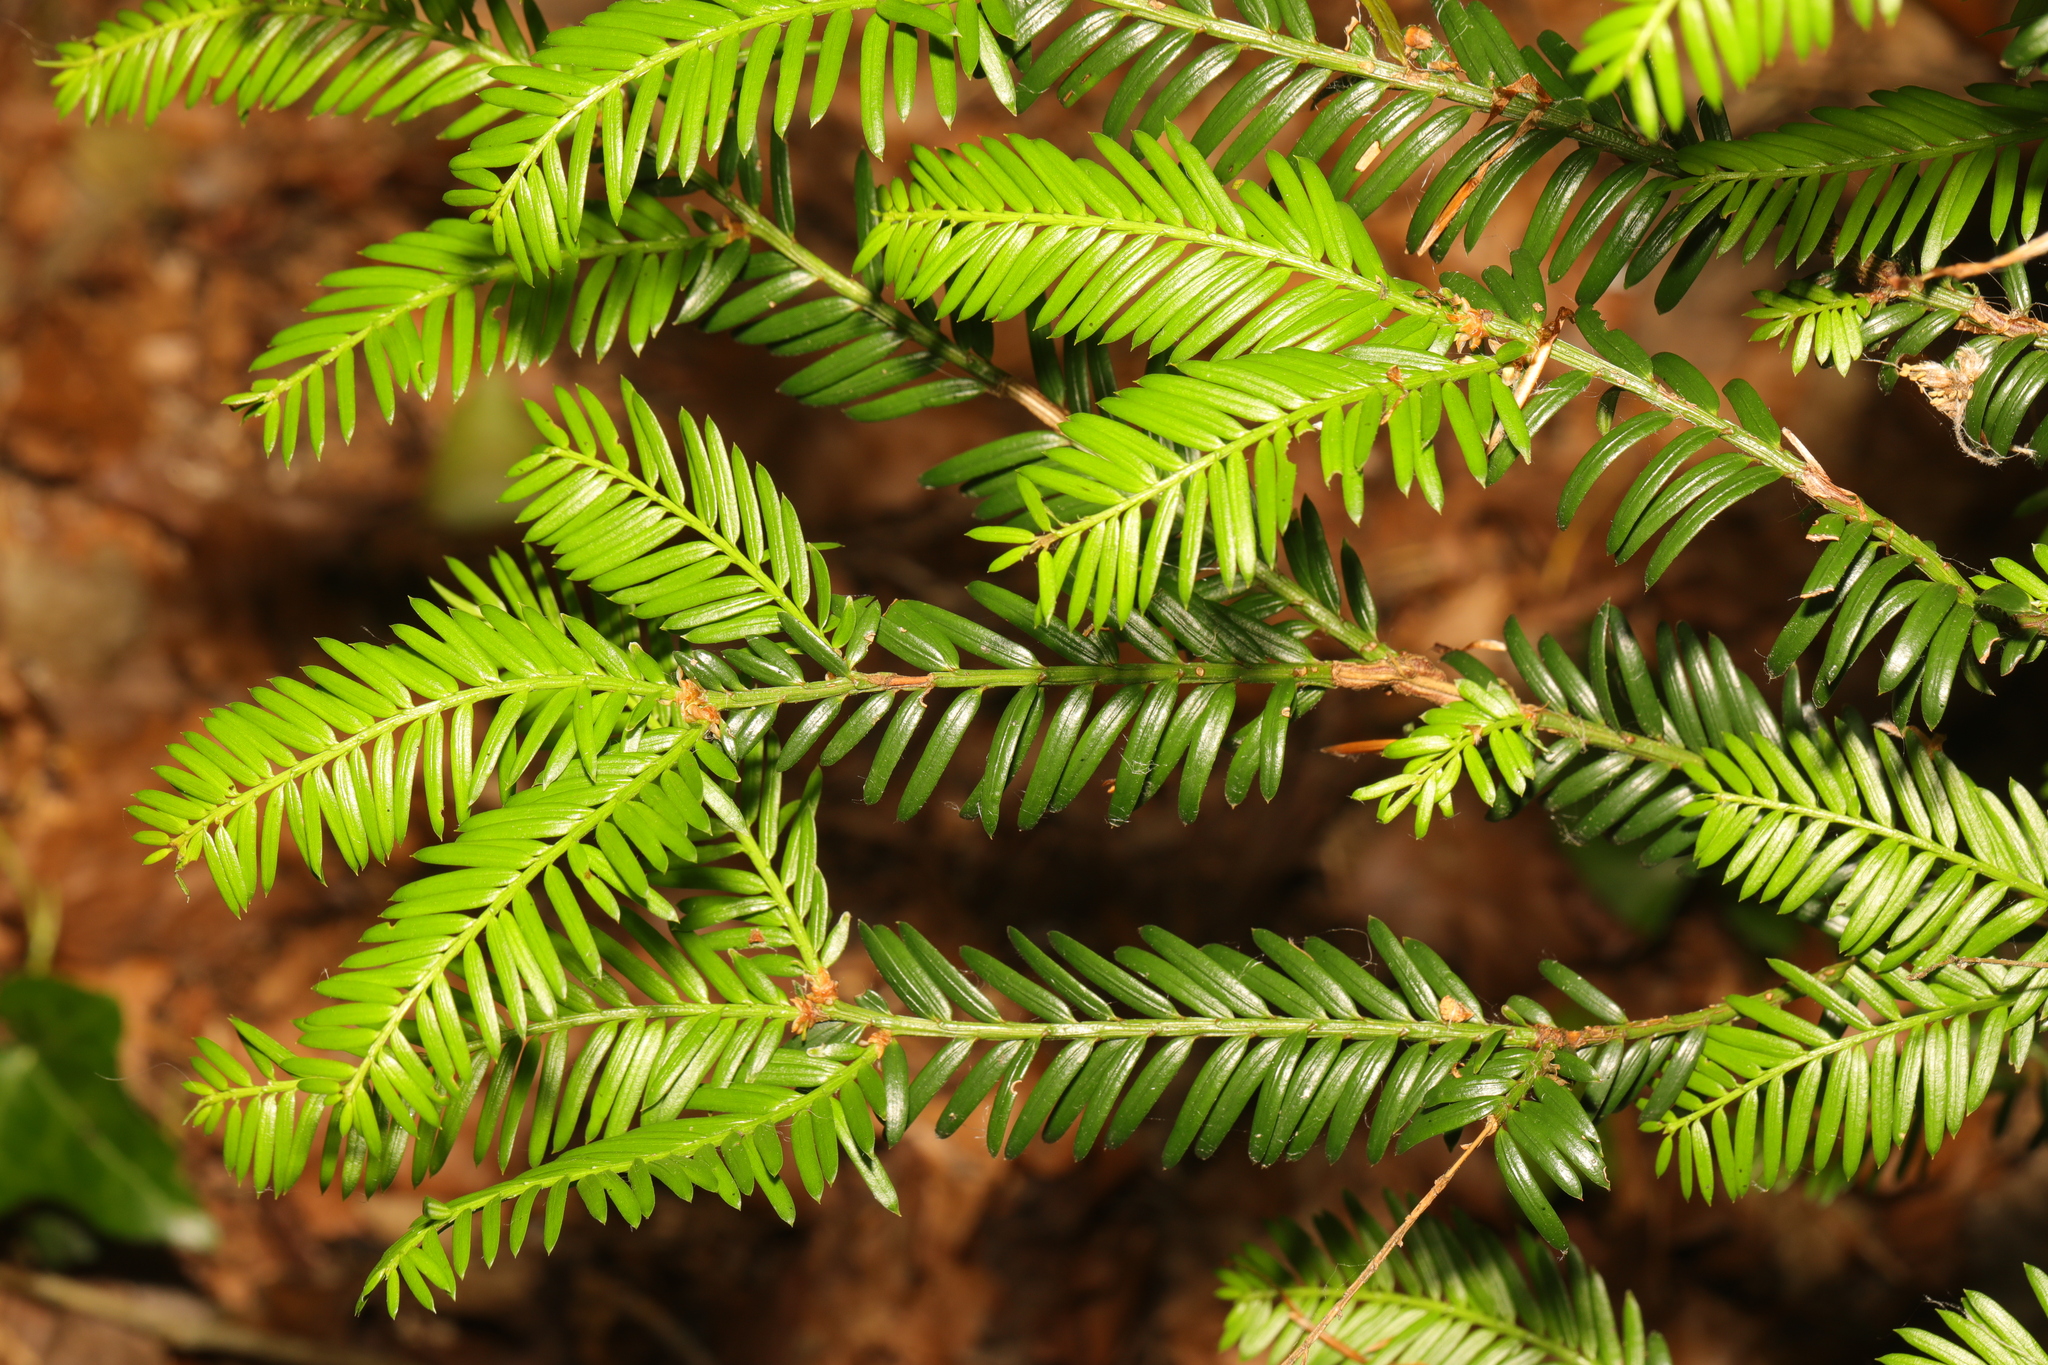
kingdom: Plantae
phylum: Tracheophyta
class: Pinopsida
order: Pinales
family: Taxaceae
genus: Taxus
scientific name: Taxus baccata
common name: Yew
